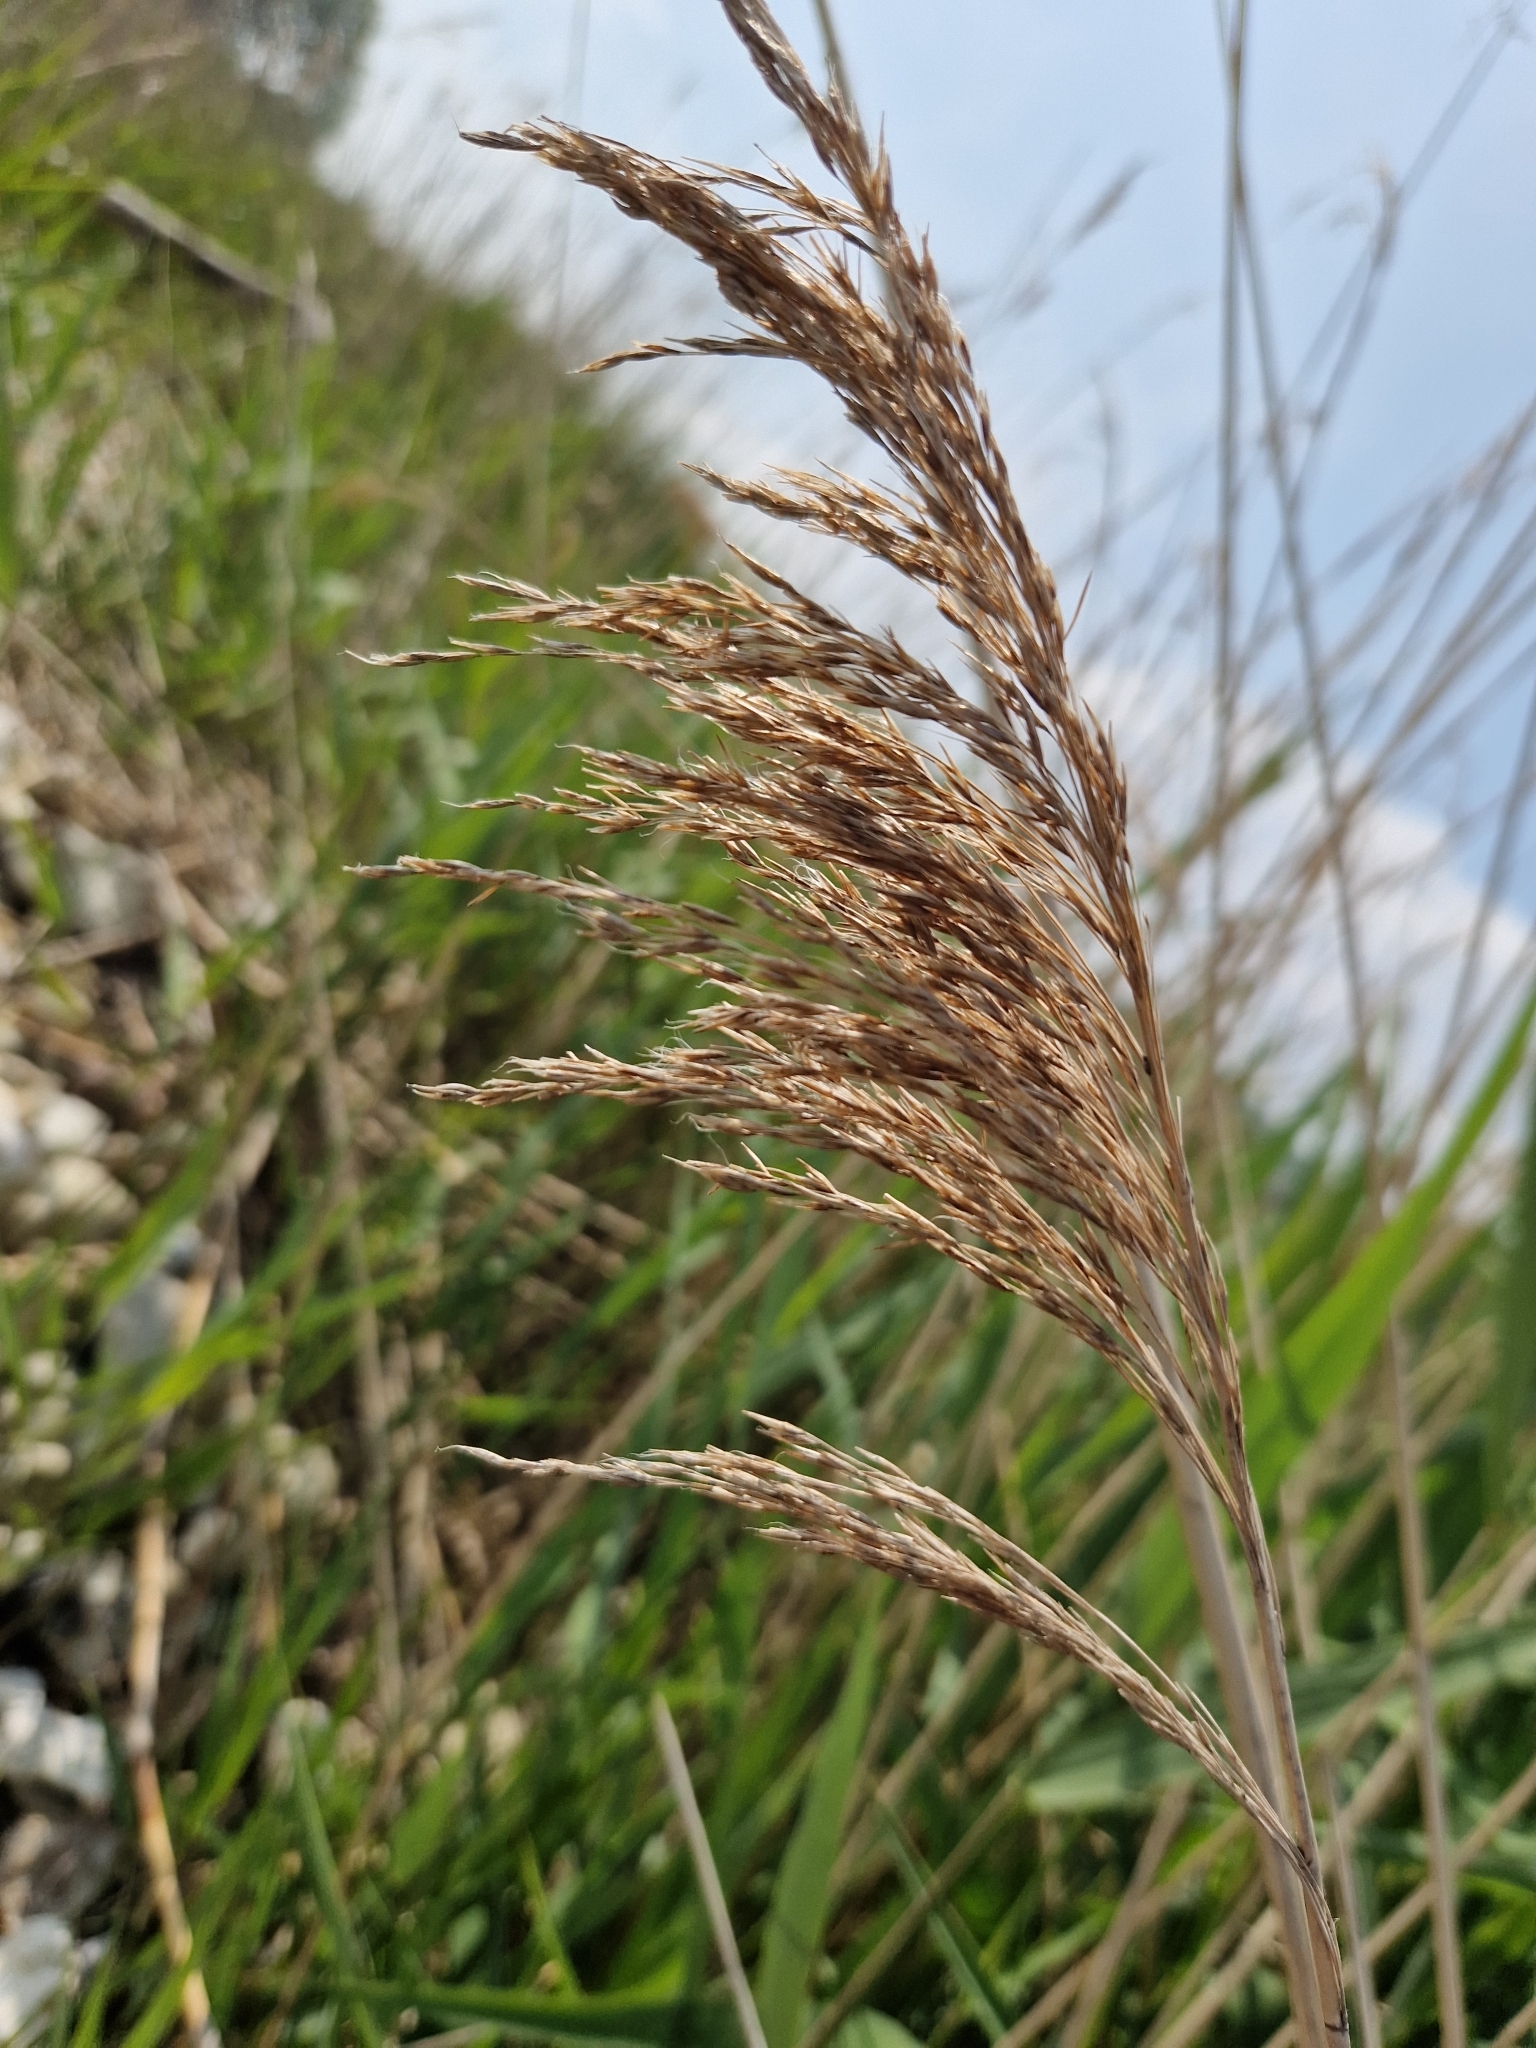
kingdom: Plantae
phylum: Tracheophyta
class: Liliopsida
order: Poales
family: Poaceae
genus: Phragmites
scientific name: Phragmites australis
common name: Common reed
